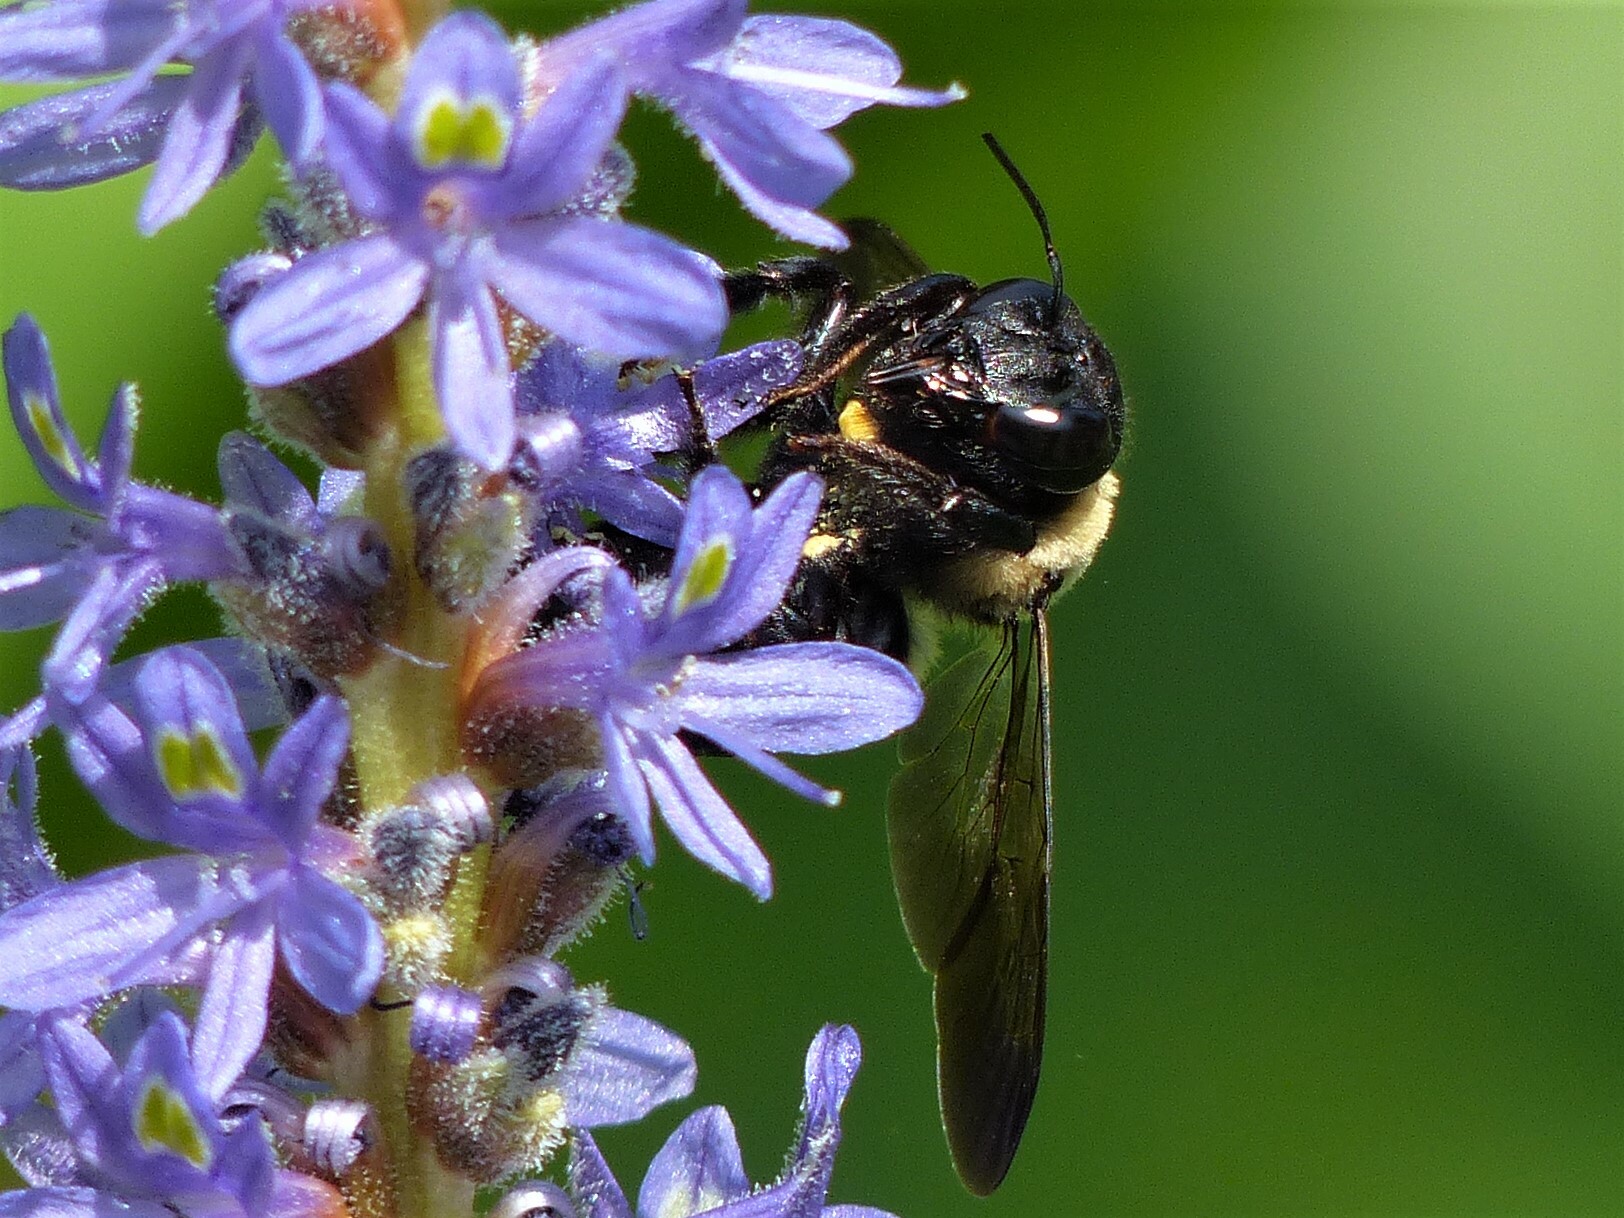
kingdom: Animalia
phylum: Arthropoda
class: Insecta
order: Hymenoptera
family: Apidae
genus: Xylocopa
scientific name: Xylocopa virginica
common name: Carpenter bee
